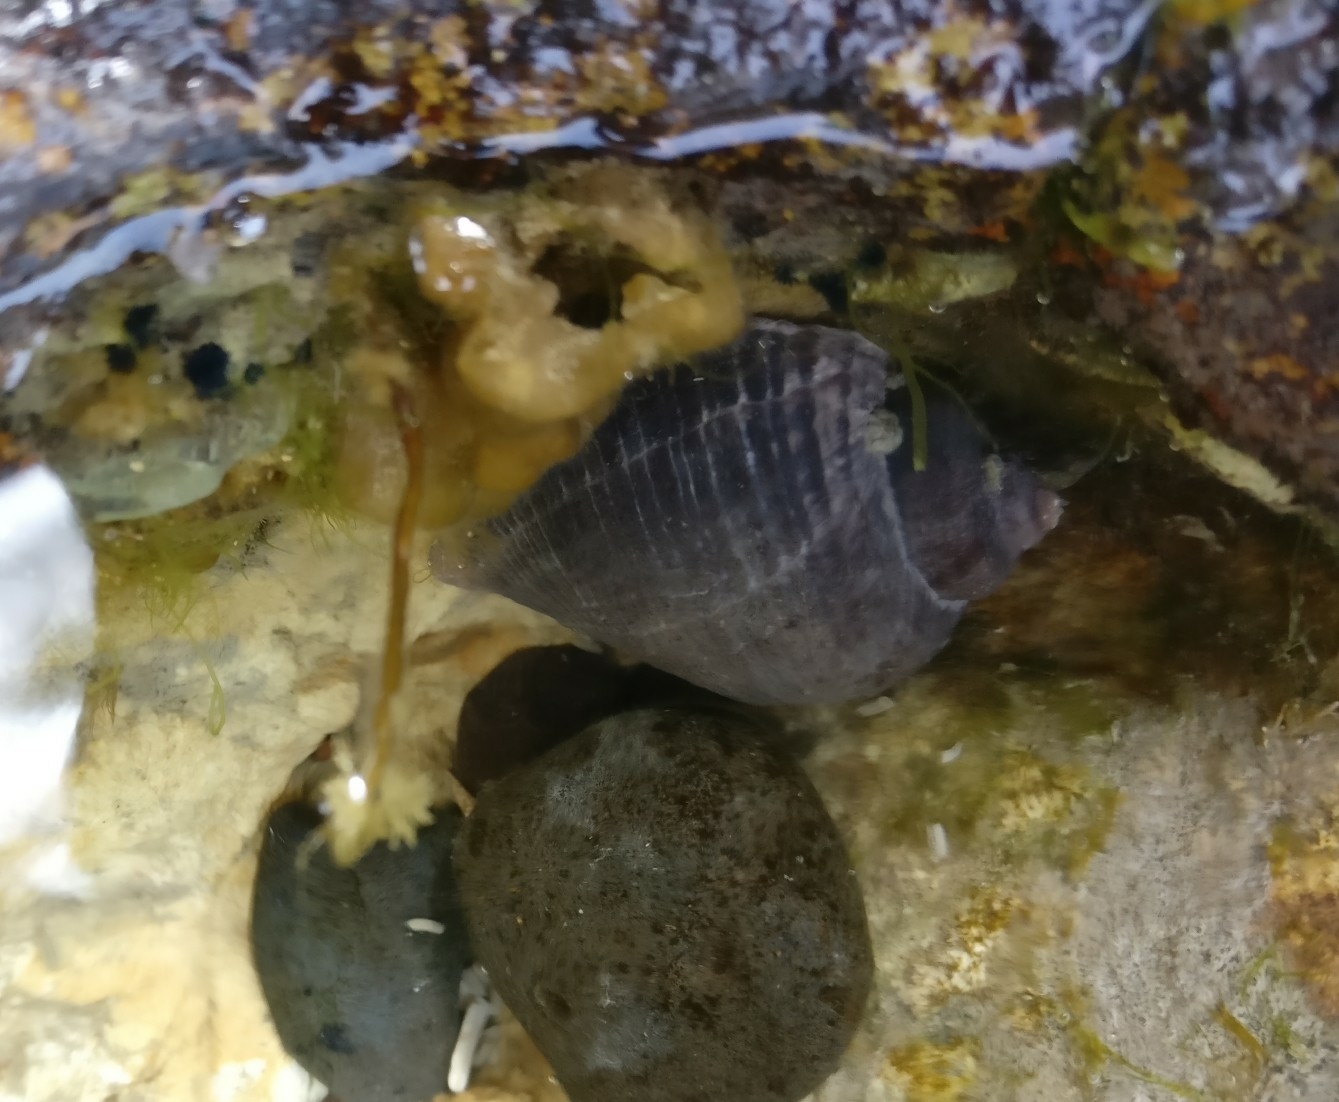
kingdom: Animalia
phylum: Mollusca
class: Gastropoda
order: Neogastropoda
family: Muricidae
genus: Haustrum
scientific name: Haustrum haustorium
